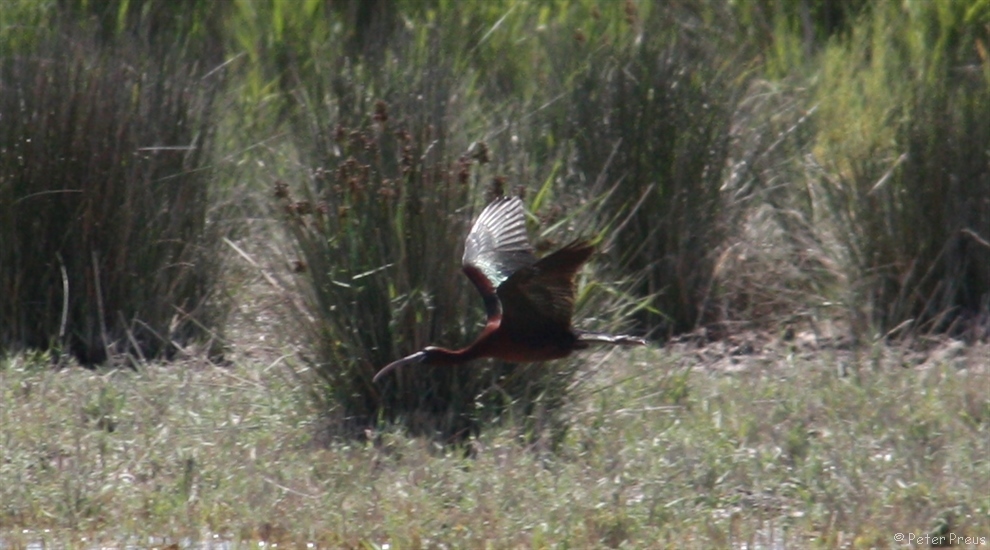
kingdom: Animalia
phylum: Chordata
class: Aves
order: Pelecaniformes
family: Threskiornithidae
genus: Plegadis
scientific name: Plegadis falcinellus
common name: Glossy ibis
